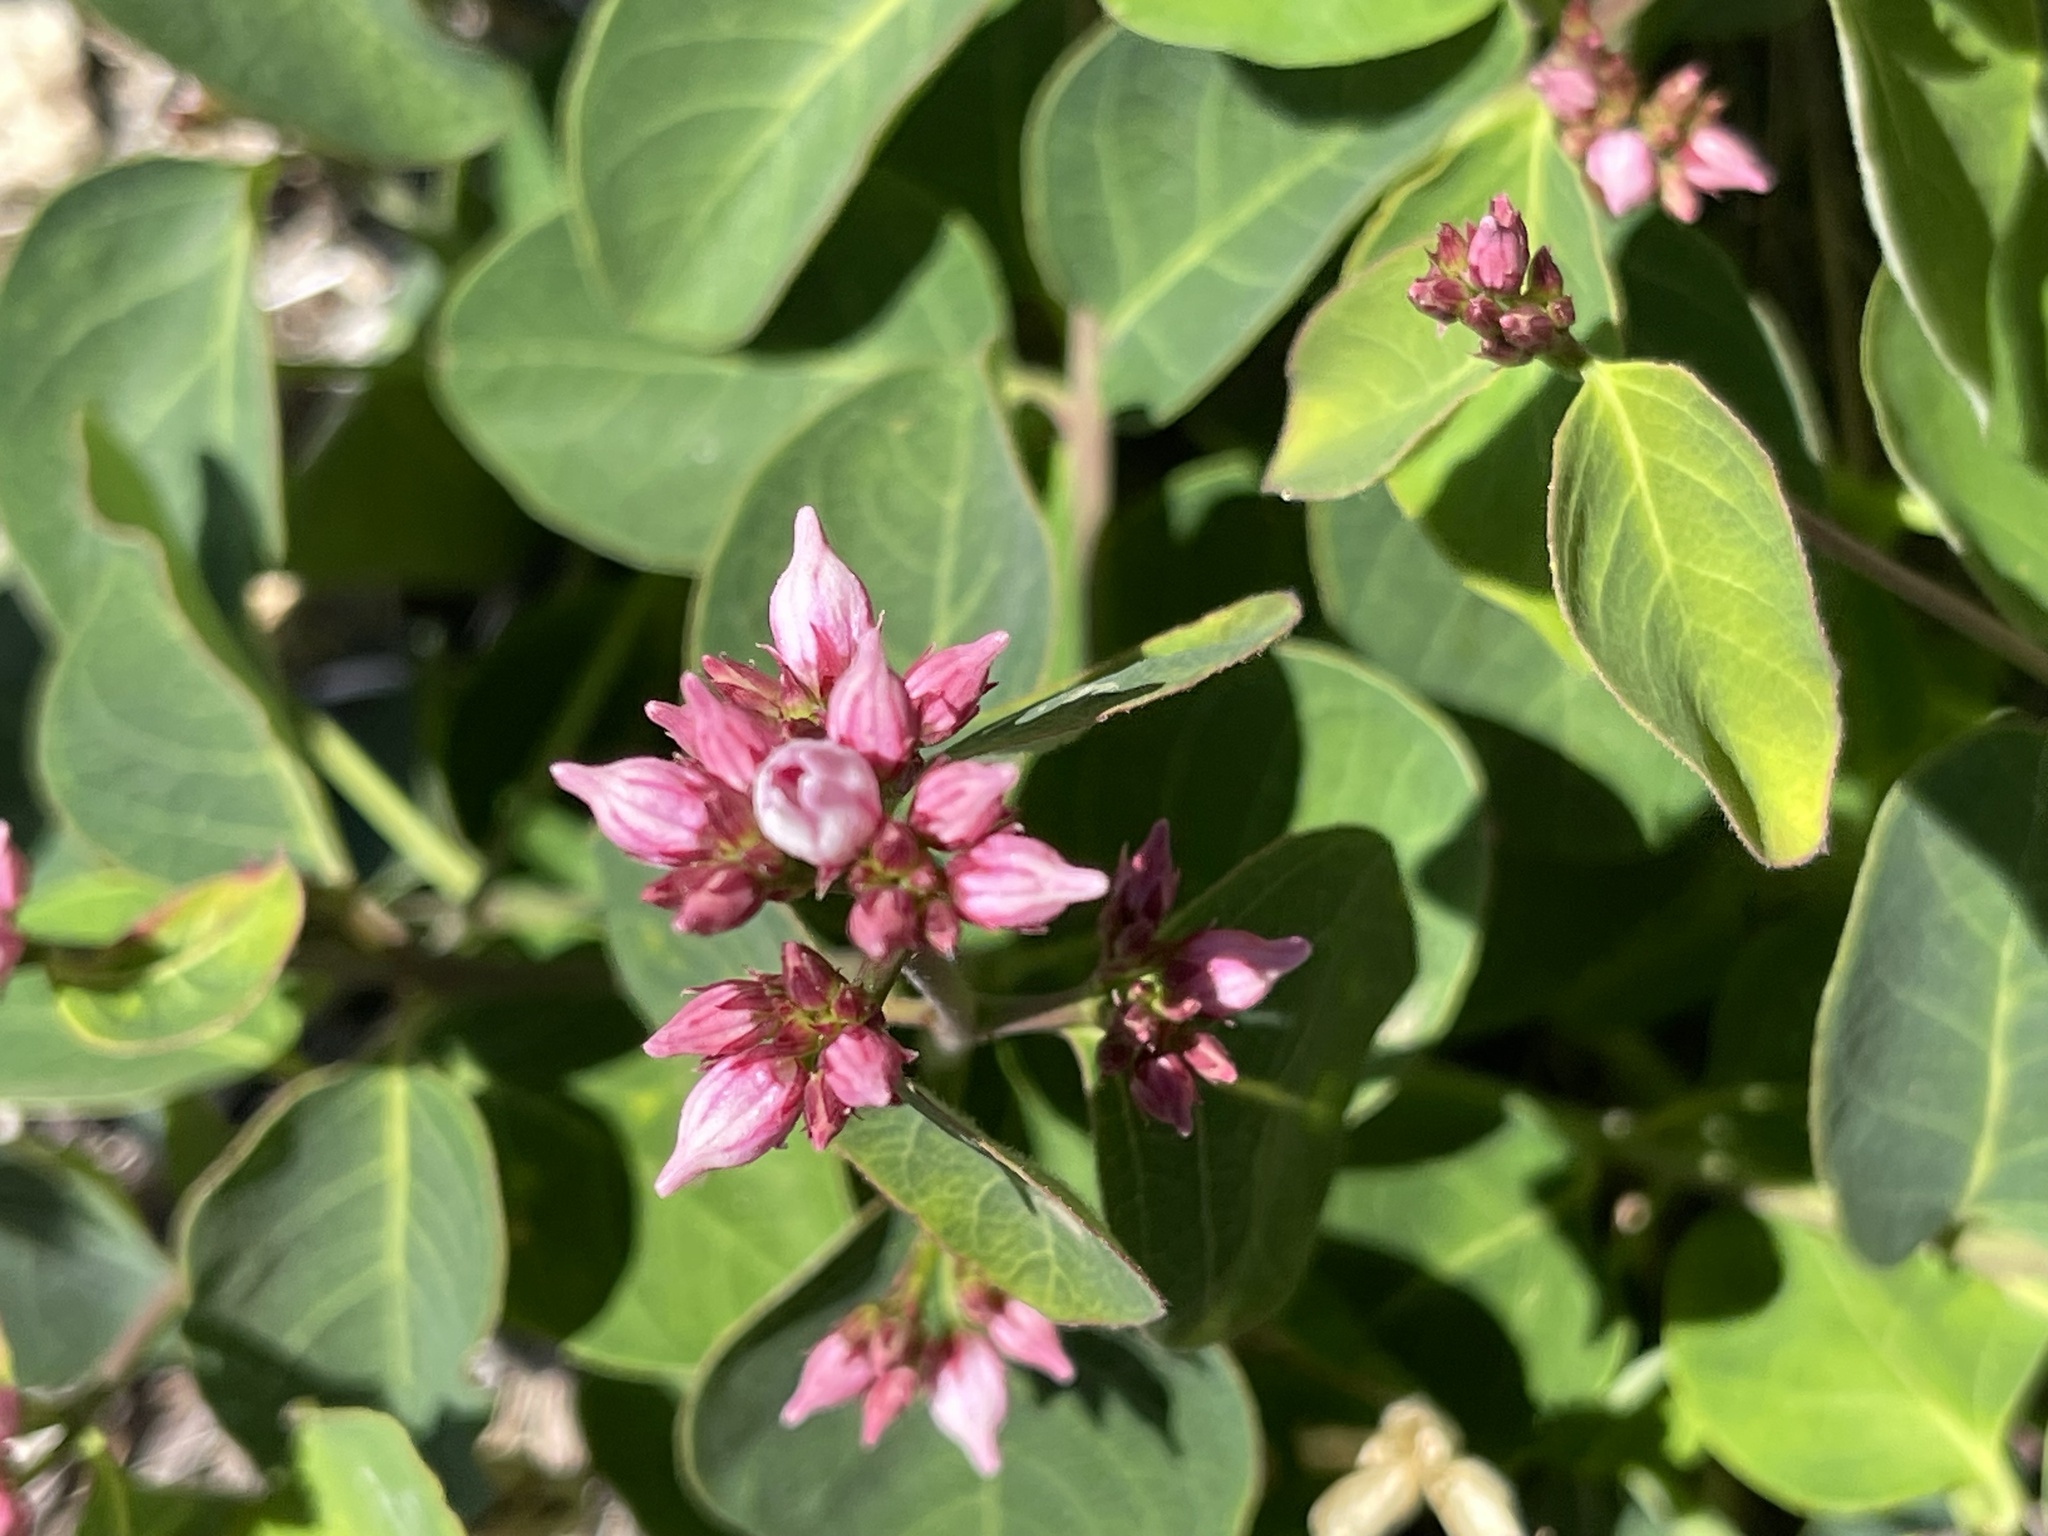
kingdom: Plantae
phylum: Tracheophyta
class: Magnoliopsida
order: Gentianales
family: Apocynaceae
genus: Apocynum
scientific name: Apocynum androsaemifolium
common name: Spreading dogbane
